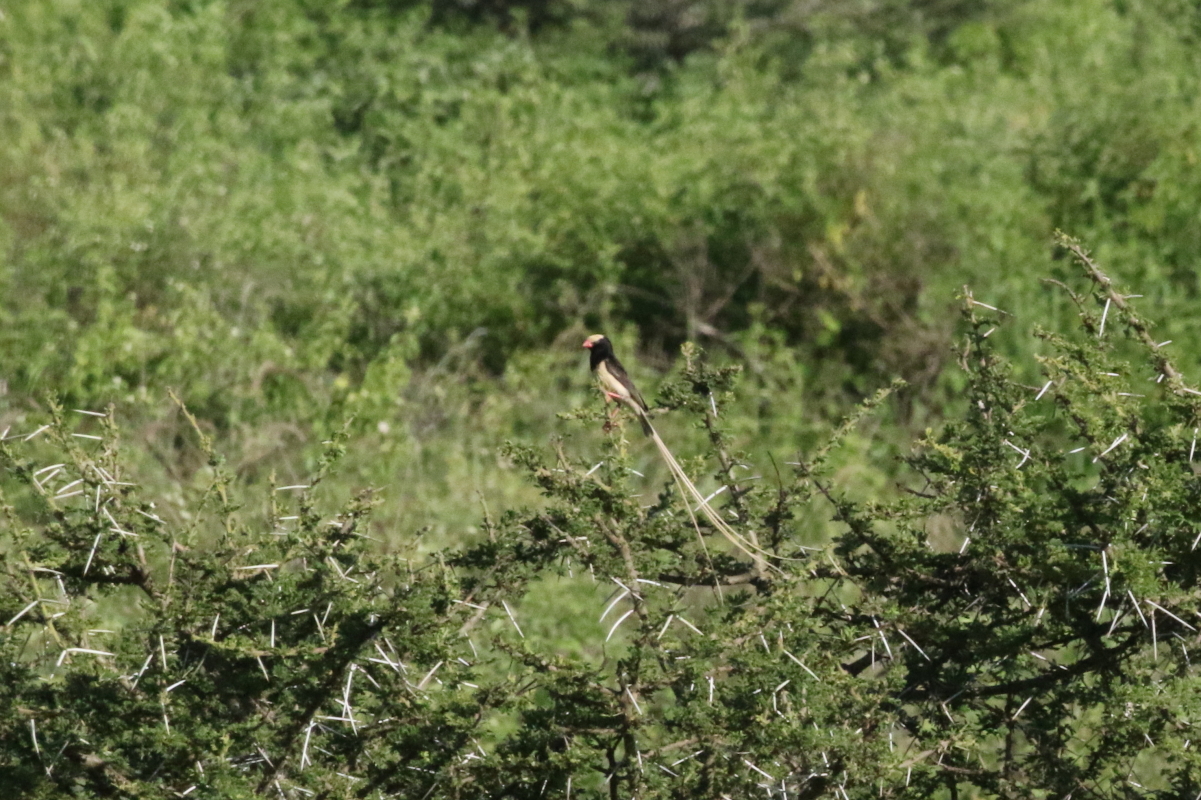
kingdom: Animalia
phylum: Chordata
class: Aves
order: Passeriformes
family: Viduidae
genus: Vidua
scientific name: Vidua fischeri
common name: Straw-tailed whydah
